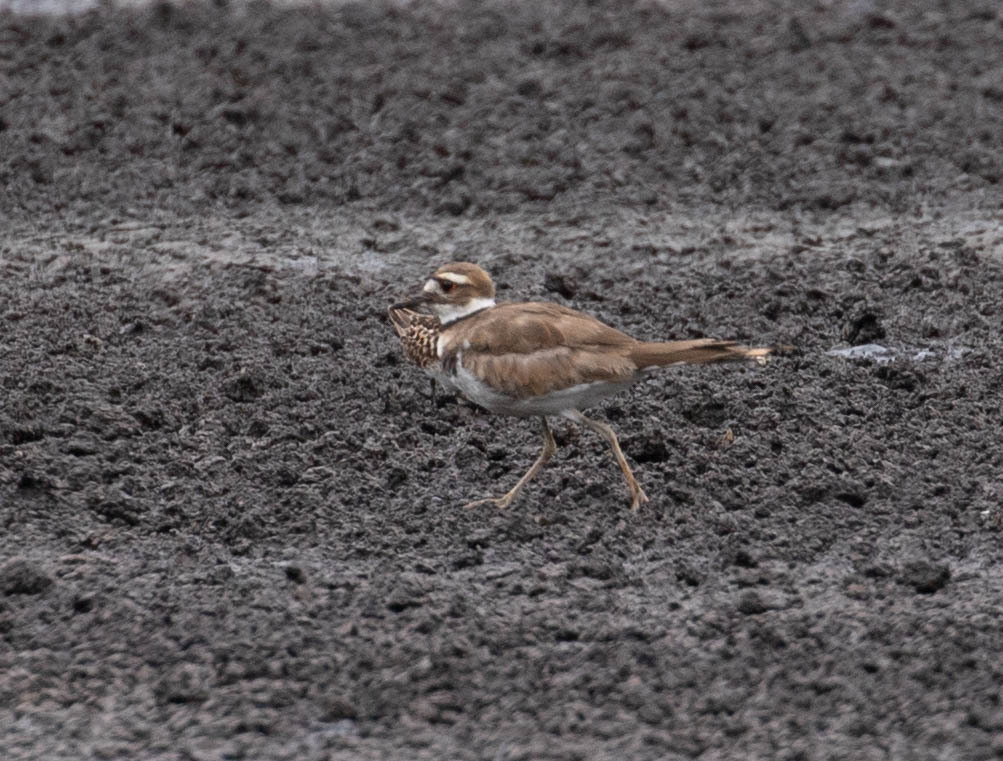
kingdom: Animalia
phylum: Chordata
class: Aves
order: Charadriiformes
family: Charadriidae
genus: Charadrius
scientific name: Charadrius vociferus
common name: Killdeer
